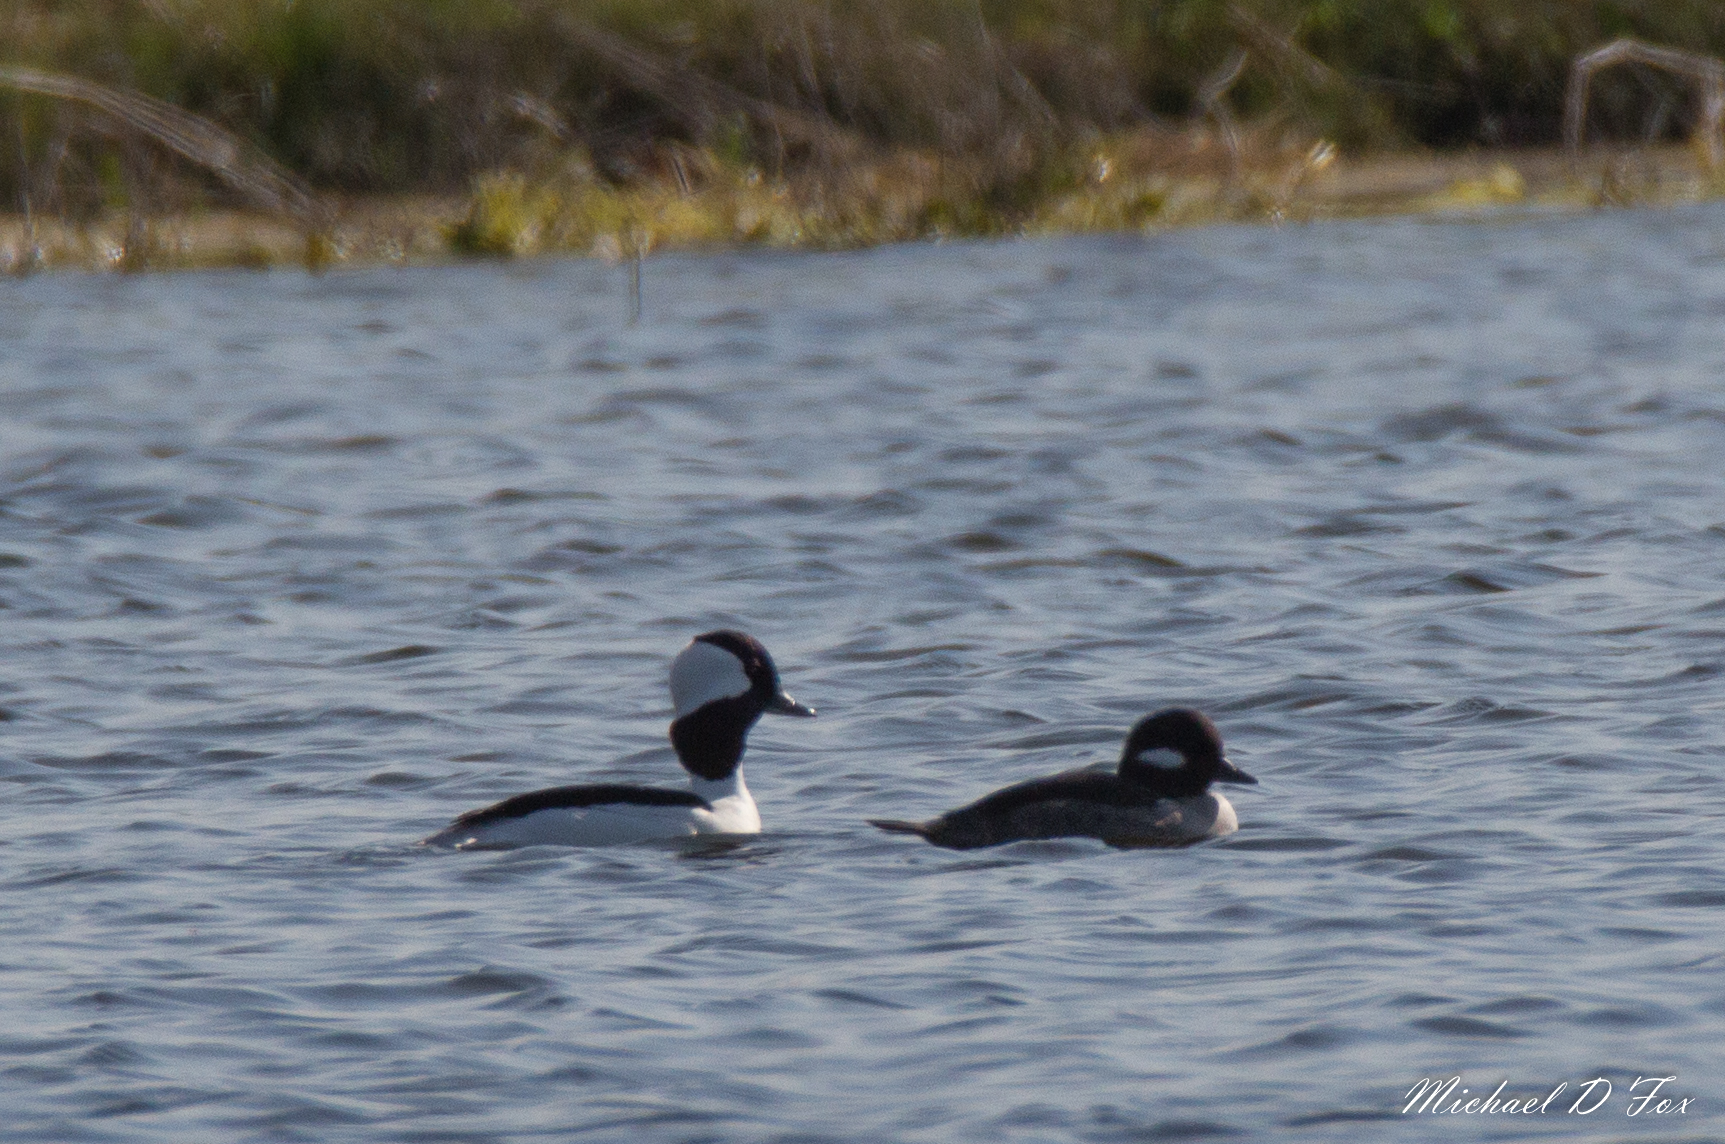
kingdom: Animalia
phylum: Chordata
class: Aves
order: Anseriformes
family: Anatidae
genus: Bucephala
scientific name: Bucephala albeola
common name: Bufflehead
